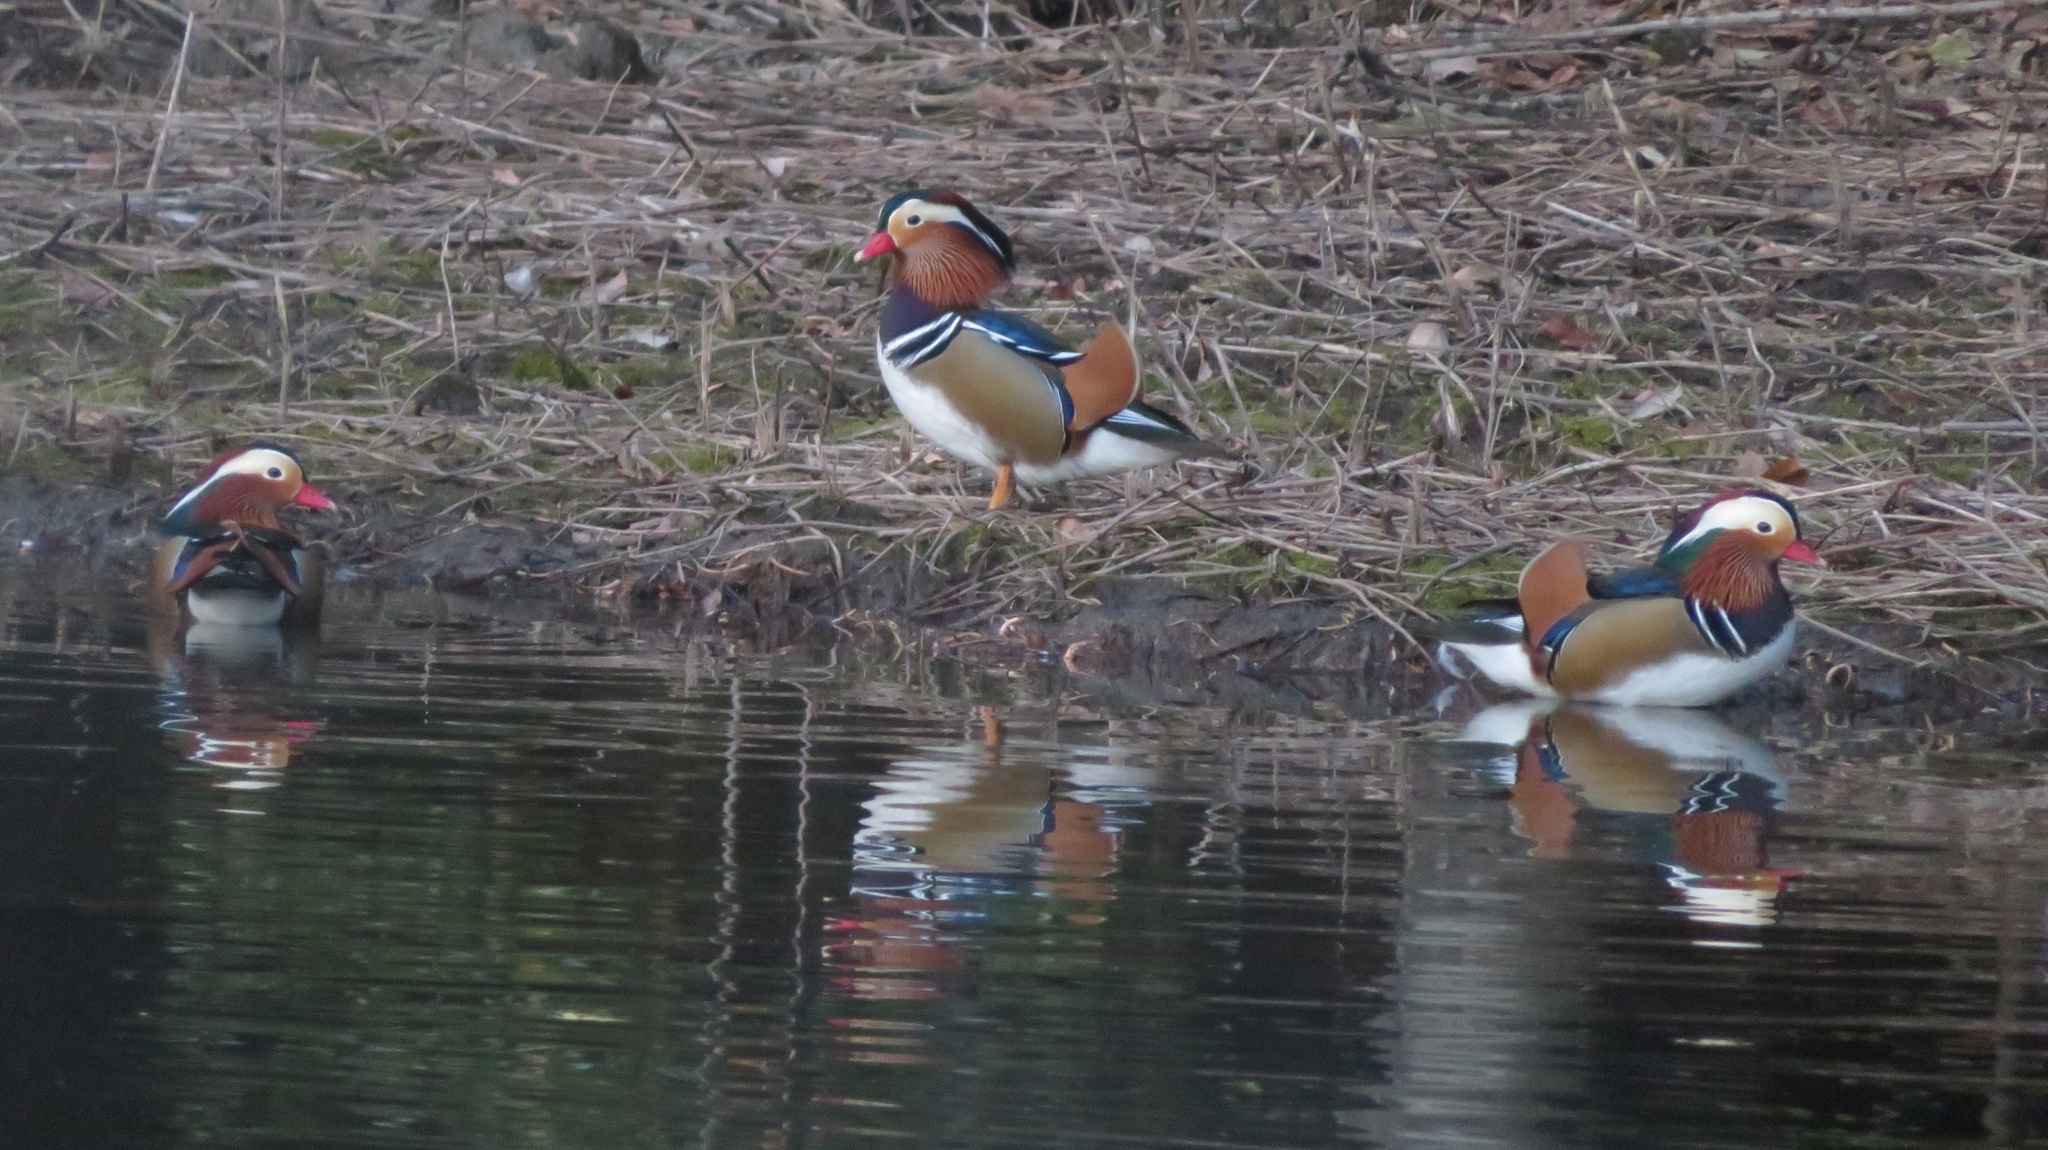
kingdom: Animalia
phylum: Chordata
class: Aves
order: Anseriformes
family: Anatidae
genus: Aix
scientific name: Aix galericulata
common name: Mandarin duck
